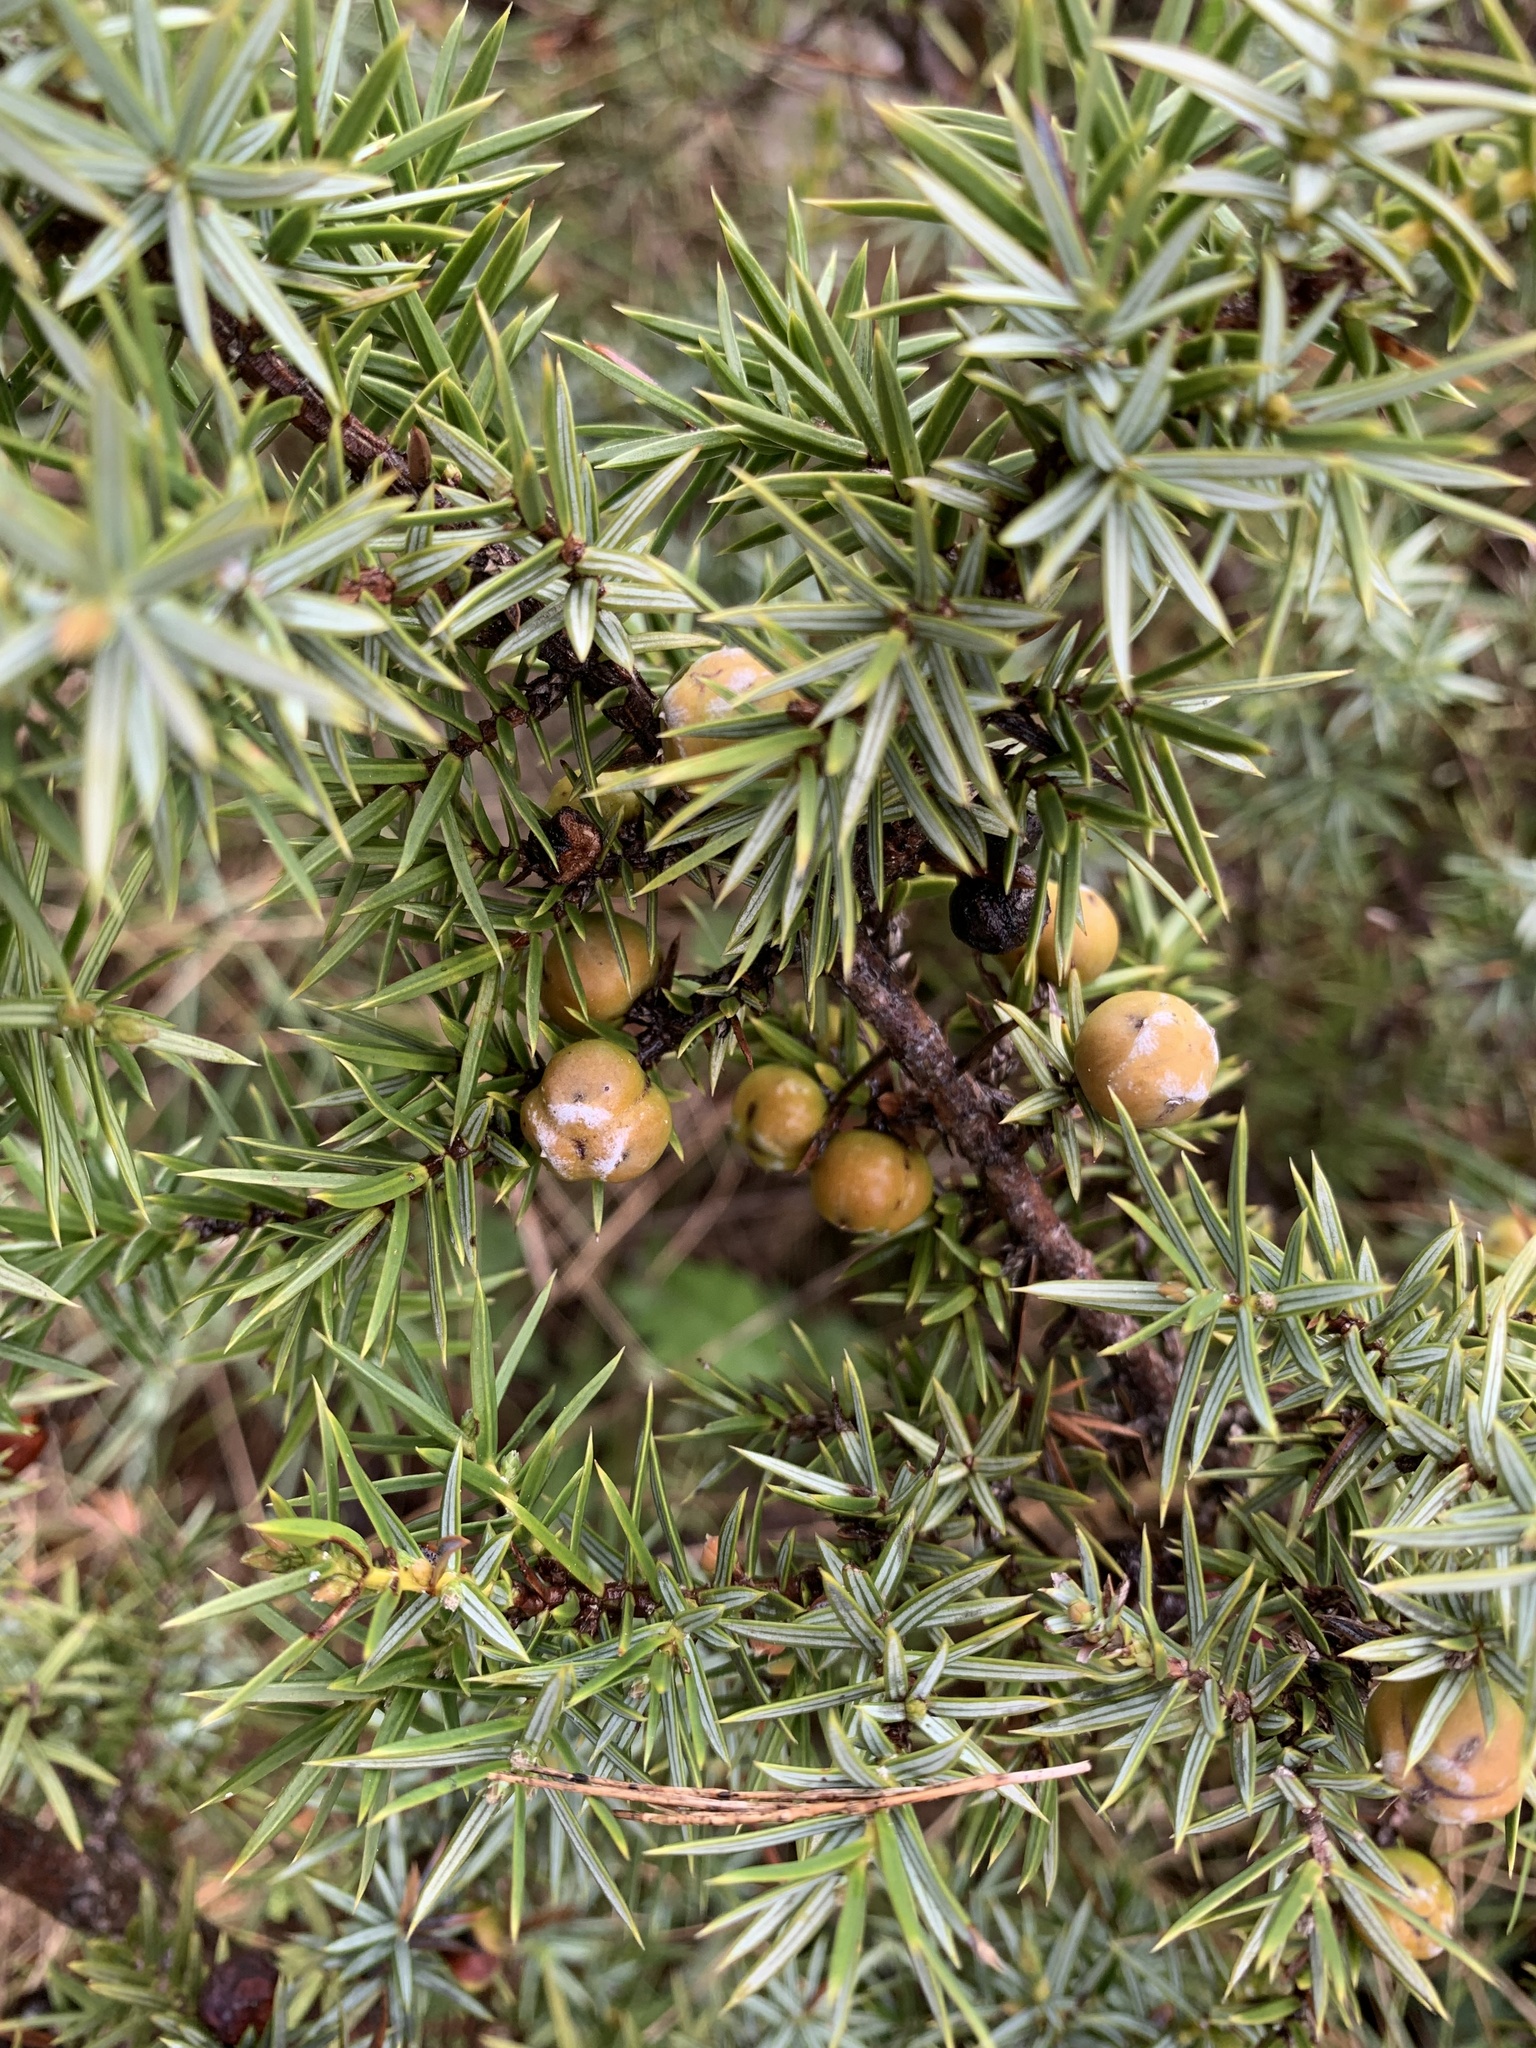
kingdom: Plantae
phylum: Tracheophyta
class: Pinopsida
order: Pinales
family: Cupressaceae
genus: Juniperus
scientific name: Juniperus oxycedrus
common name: Prickly juniper
